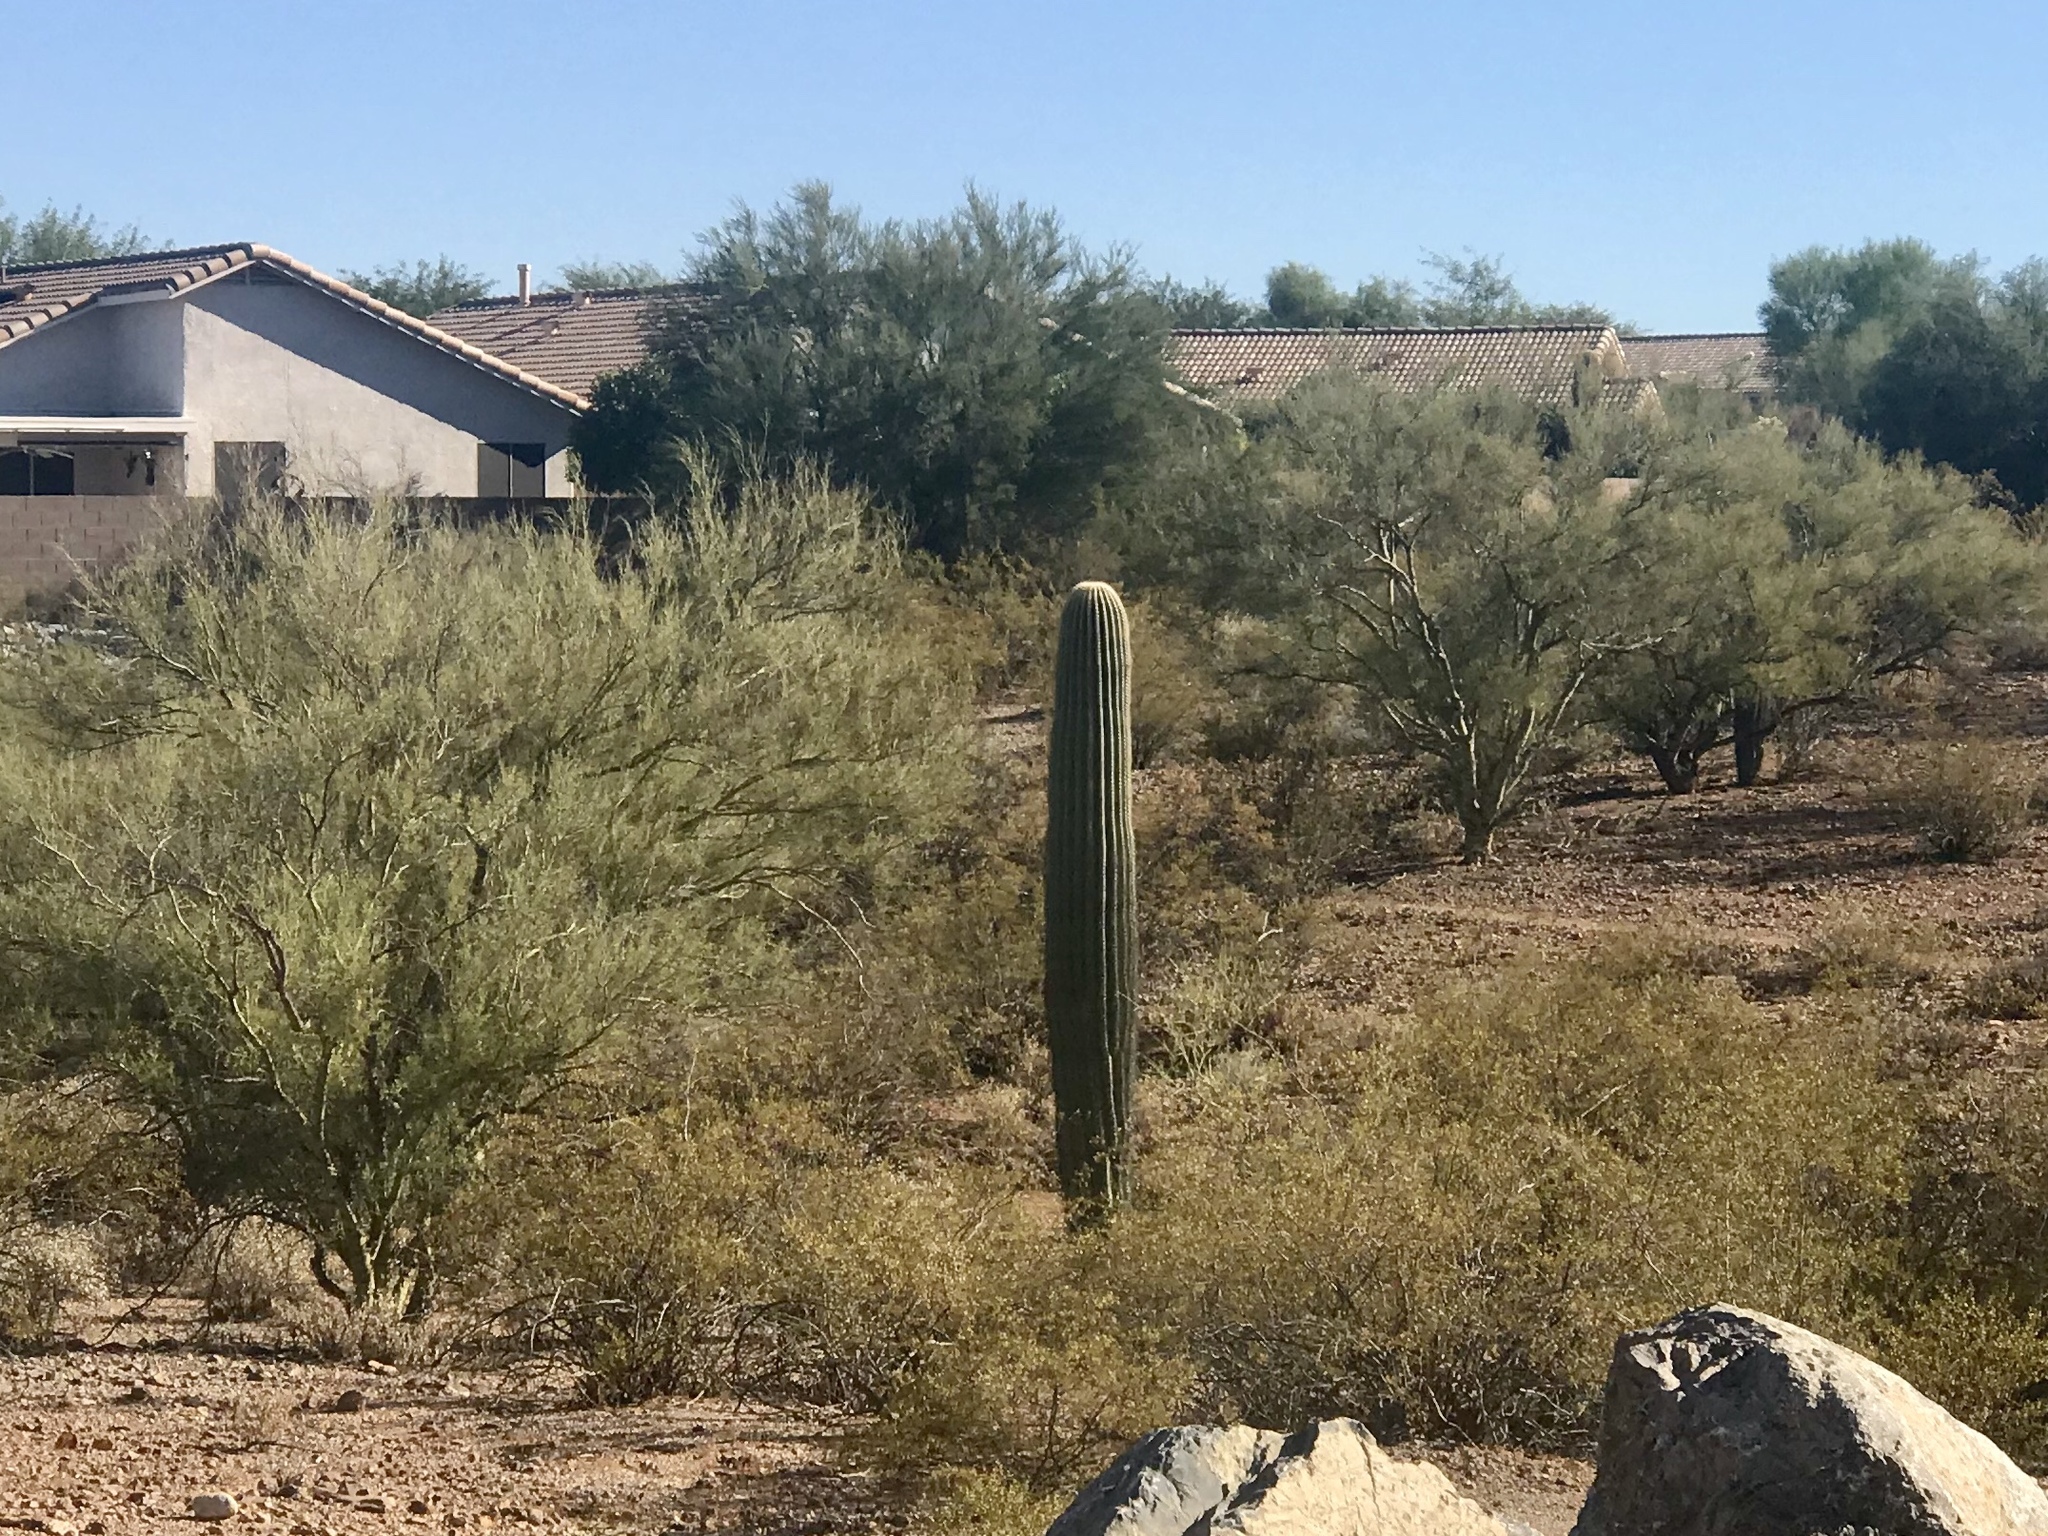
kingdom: Plantae
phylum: Tracheophyta
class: Magnoliopsida
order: Caryophyllales
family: Cactaceae
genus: Carnegiea
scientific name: Carnegiea gigantea
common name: Saguaro
